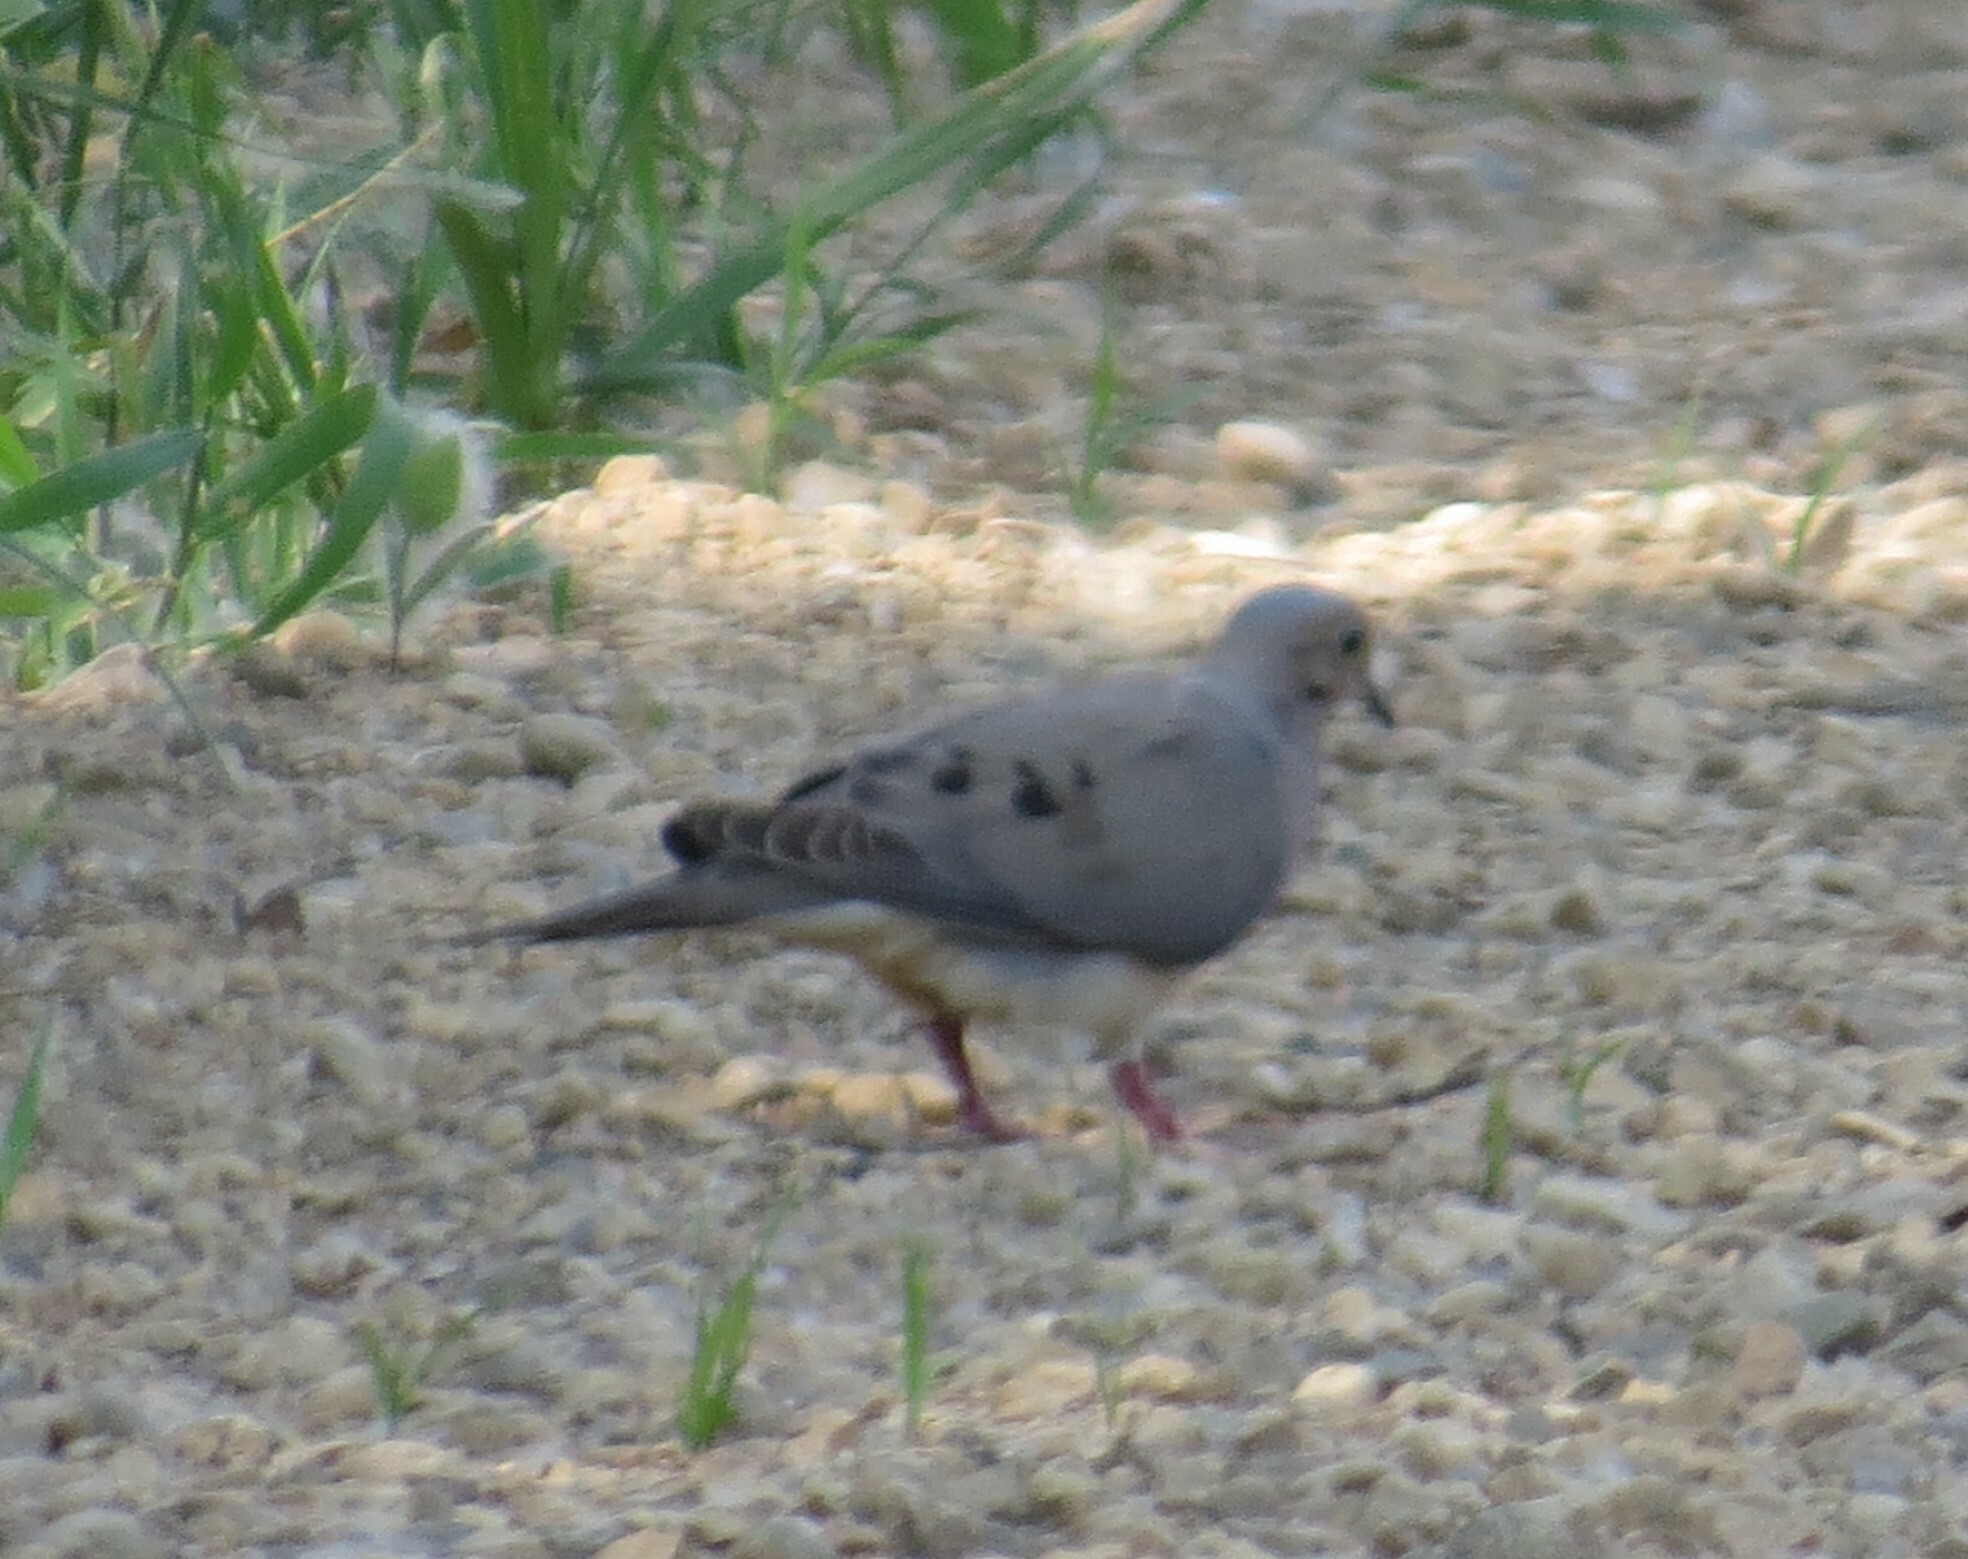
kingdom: Animalia
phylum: Chordata
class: Aves
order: Columbiformes
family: Columbidae
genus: Zenaida
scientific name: Zenaida macroura
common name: Mourning dove
